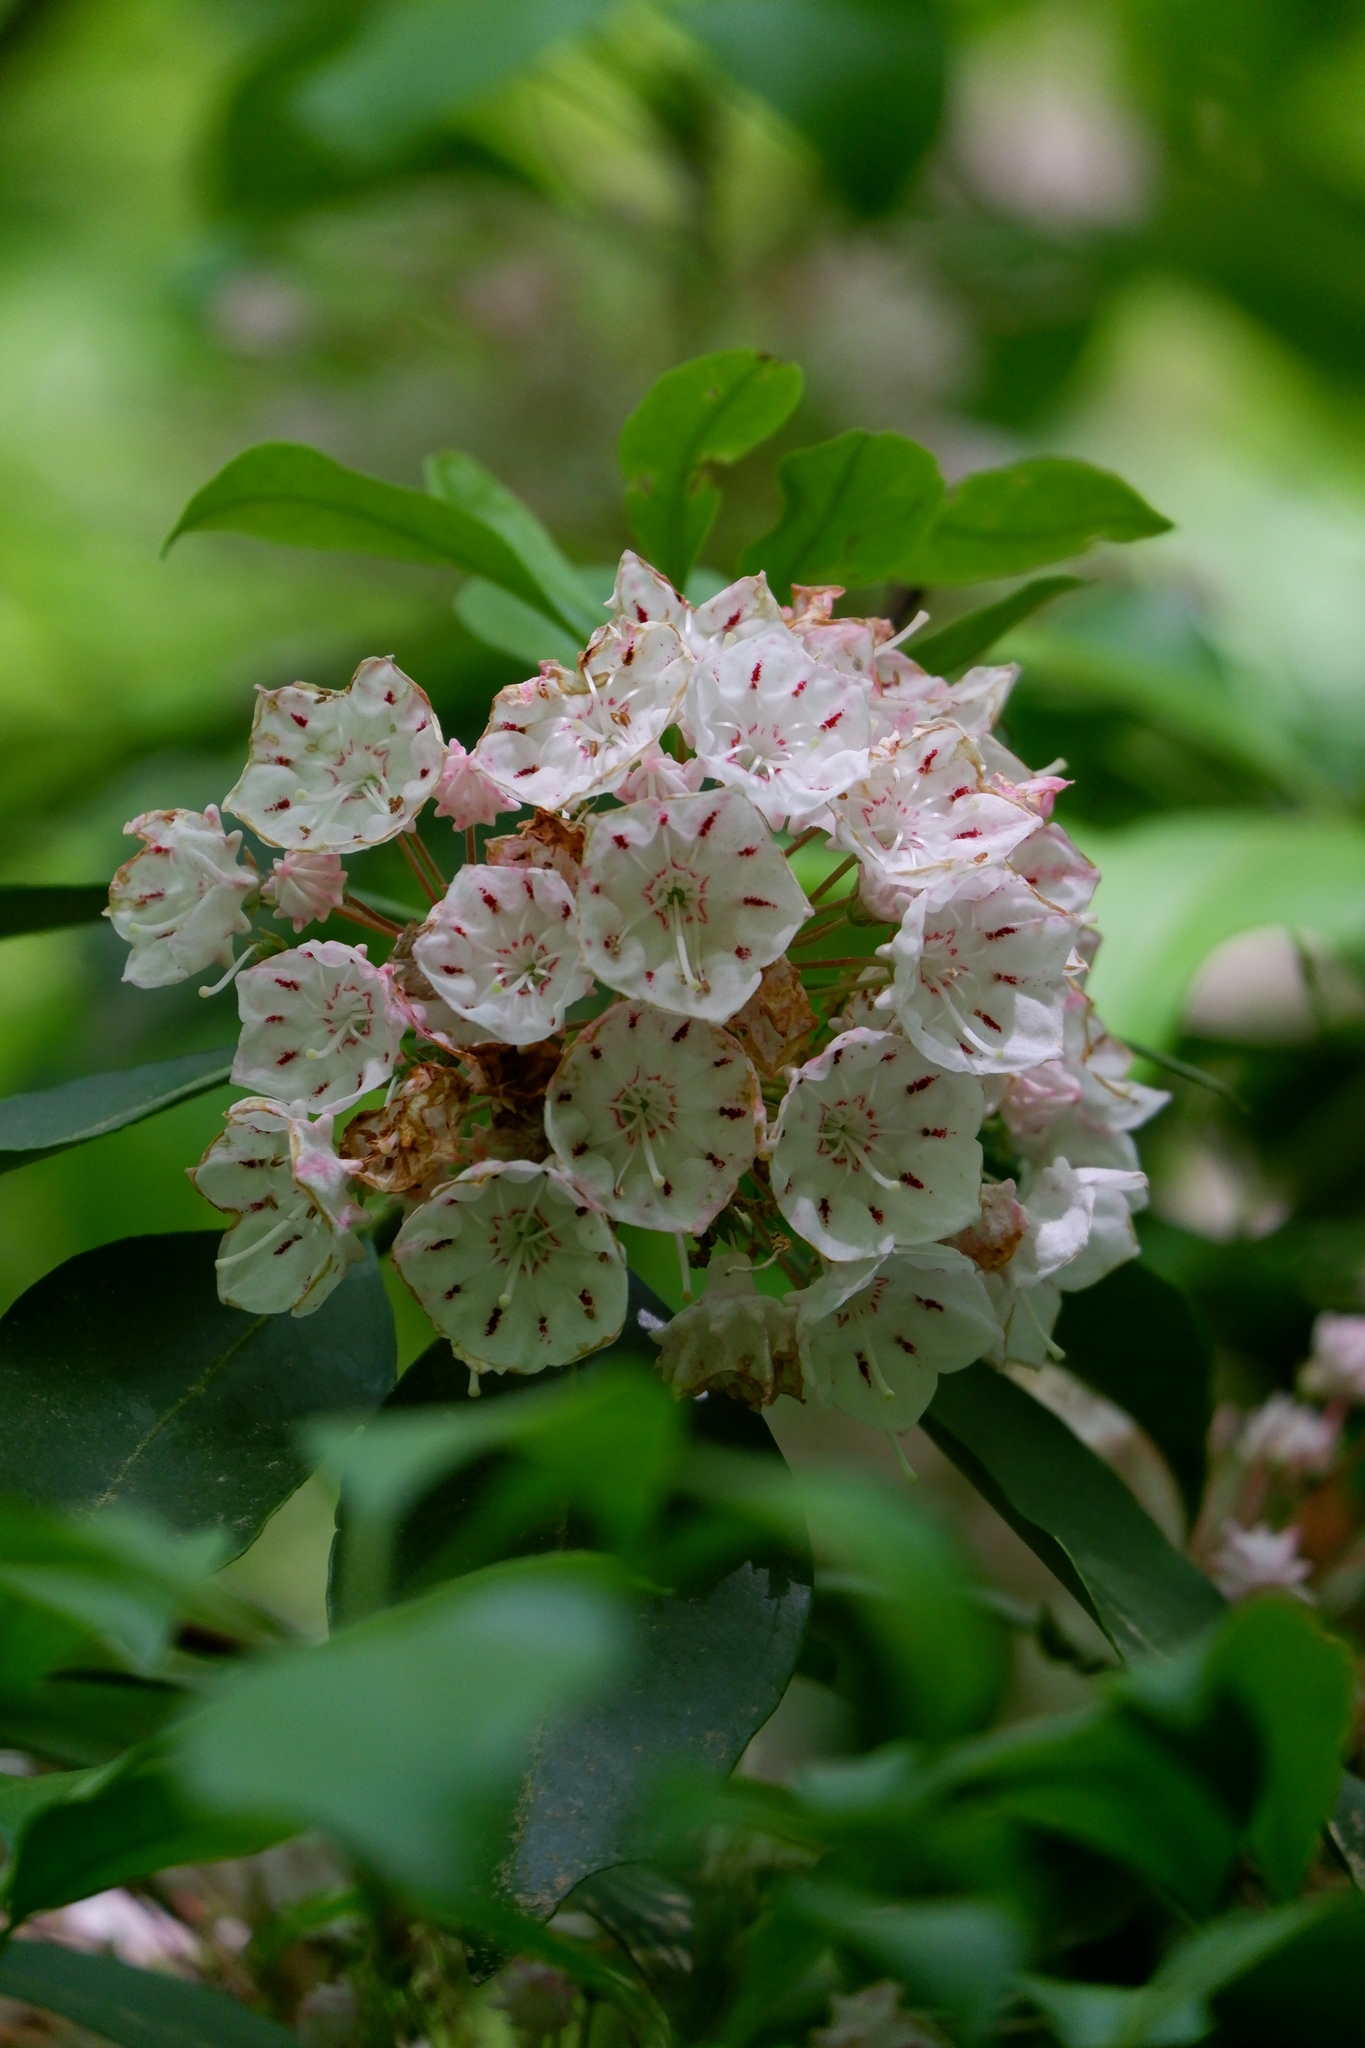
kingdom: Plantae
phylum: Tracheophyta
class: Magnoliopsida
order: Ericales
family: Ericaceae
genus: Kalmia
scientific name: Kalmia latifolia
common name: Mountain-laurel
